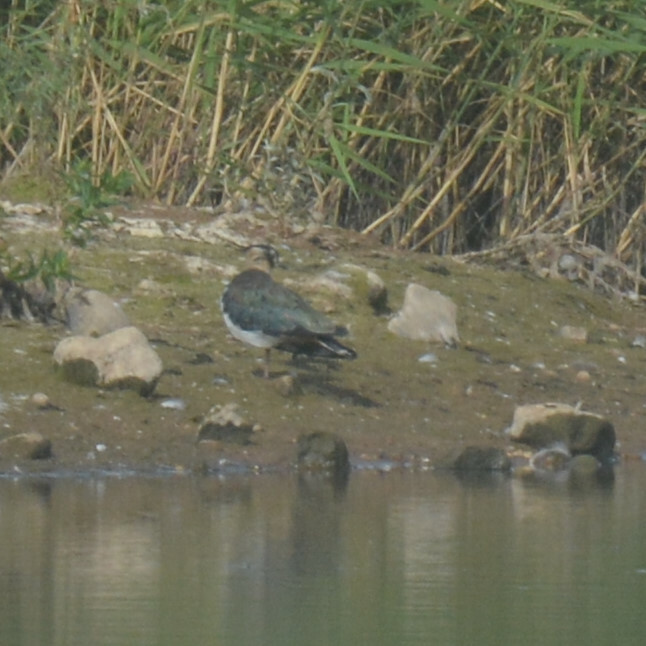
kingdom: Animalia
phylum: Chordata
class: Aves
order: Charadriiformes
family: Charadriidae
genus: Vanellus
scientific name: Vanellus vanellus
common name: Northern lapwing
